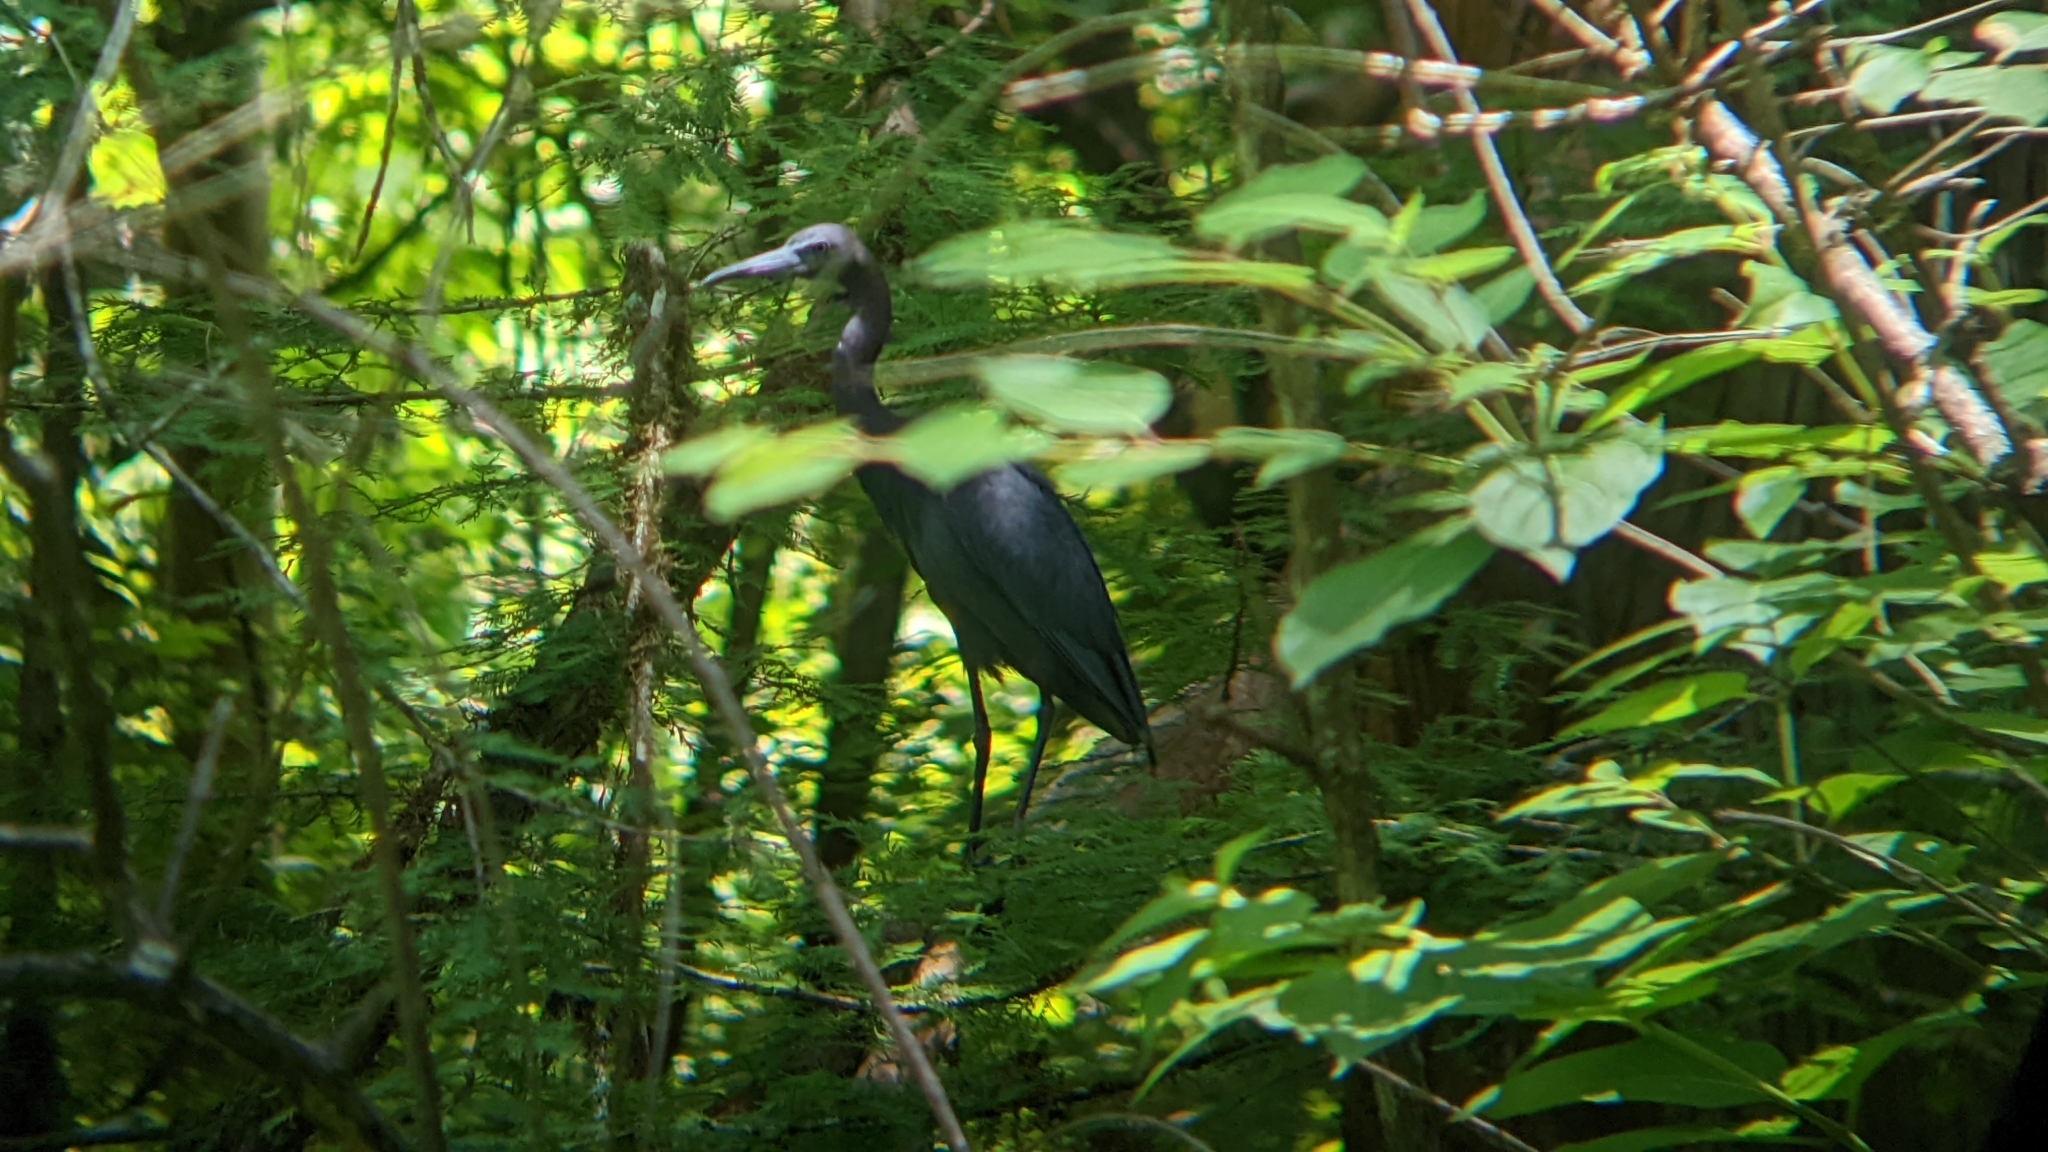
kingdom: Animalia
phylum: Chordata
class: Aves
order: Pelecaniformes
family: Ardeidae
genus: Egretta
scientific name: Egretta caerulea
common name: Little blue heron
